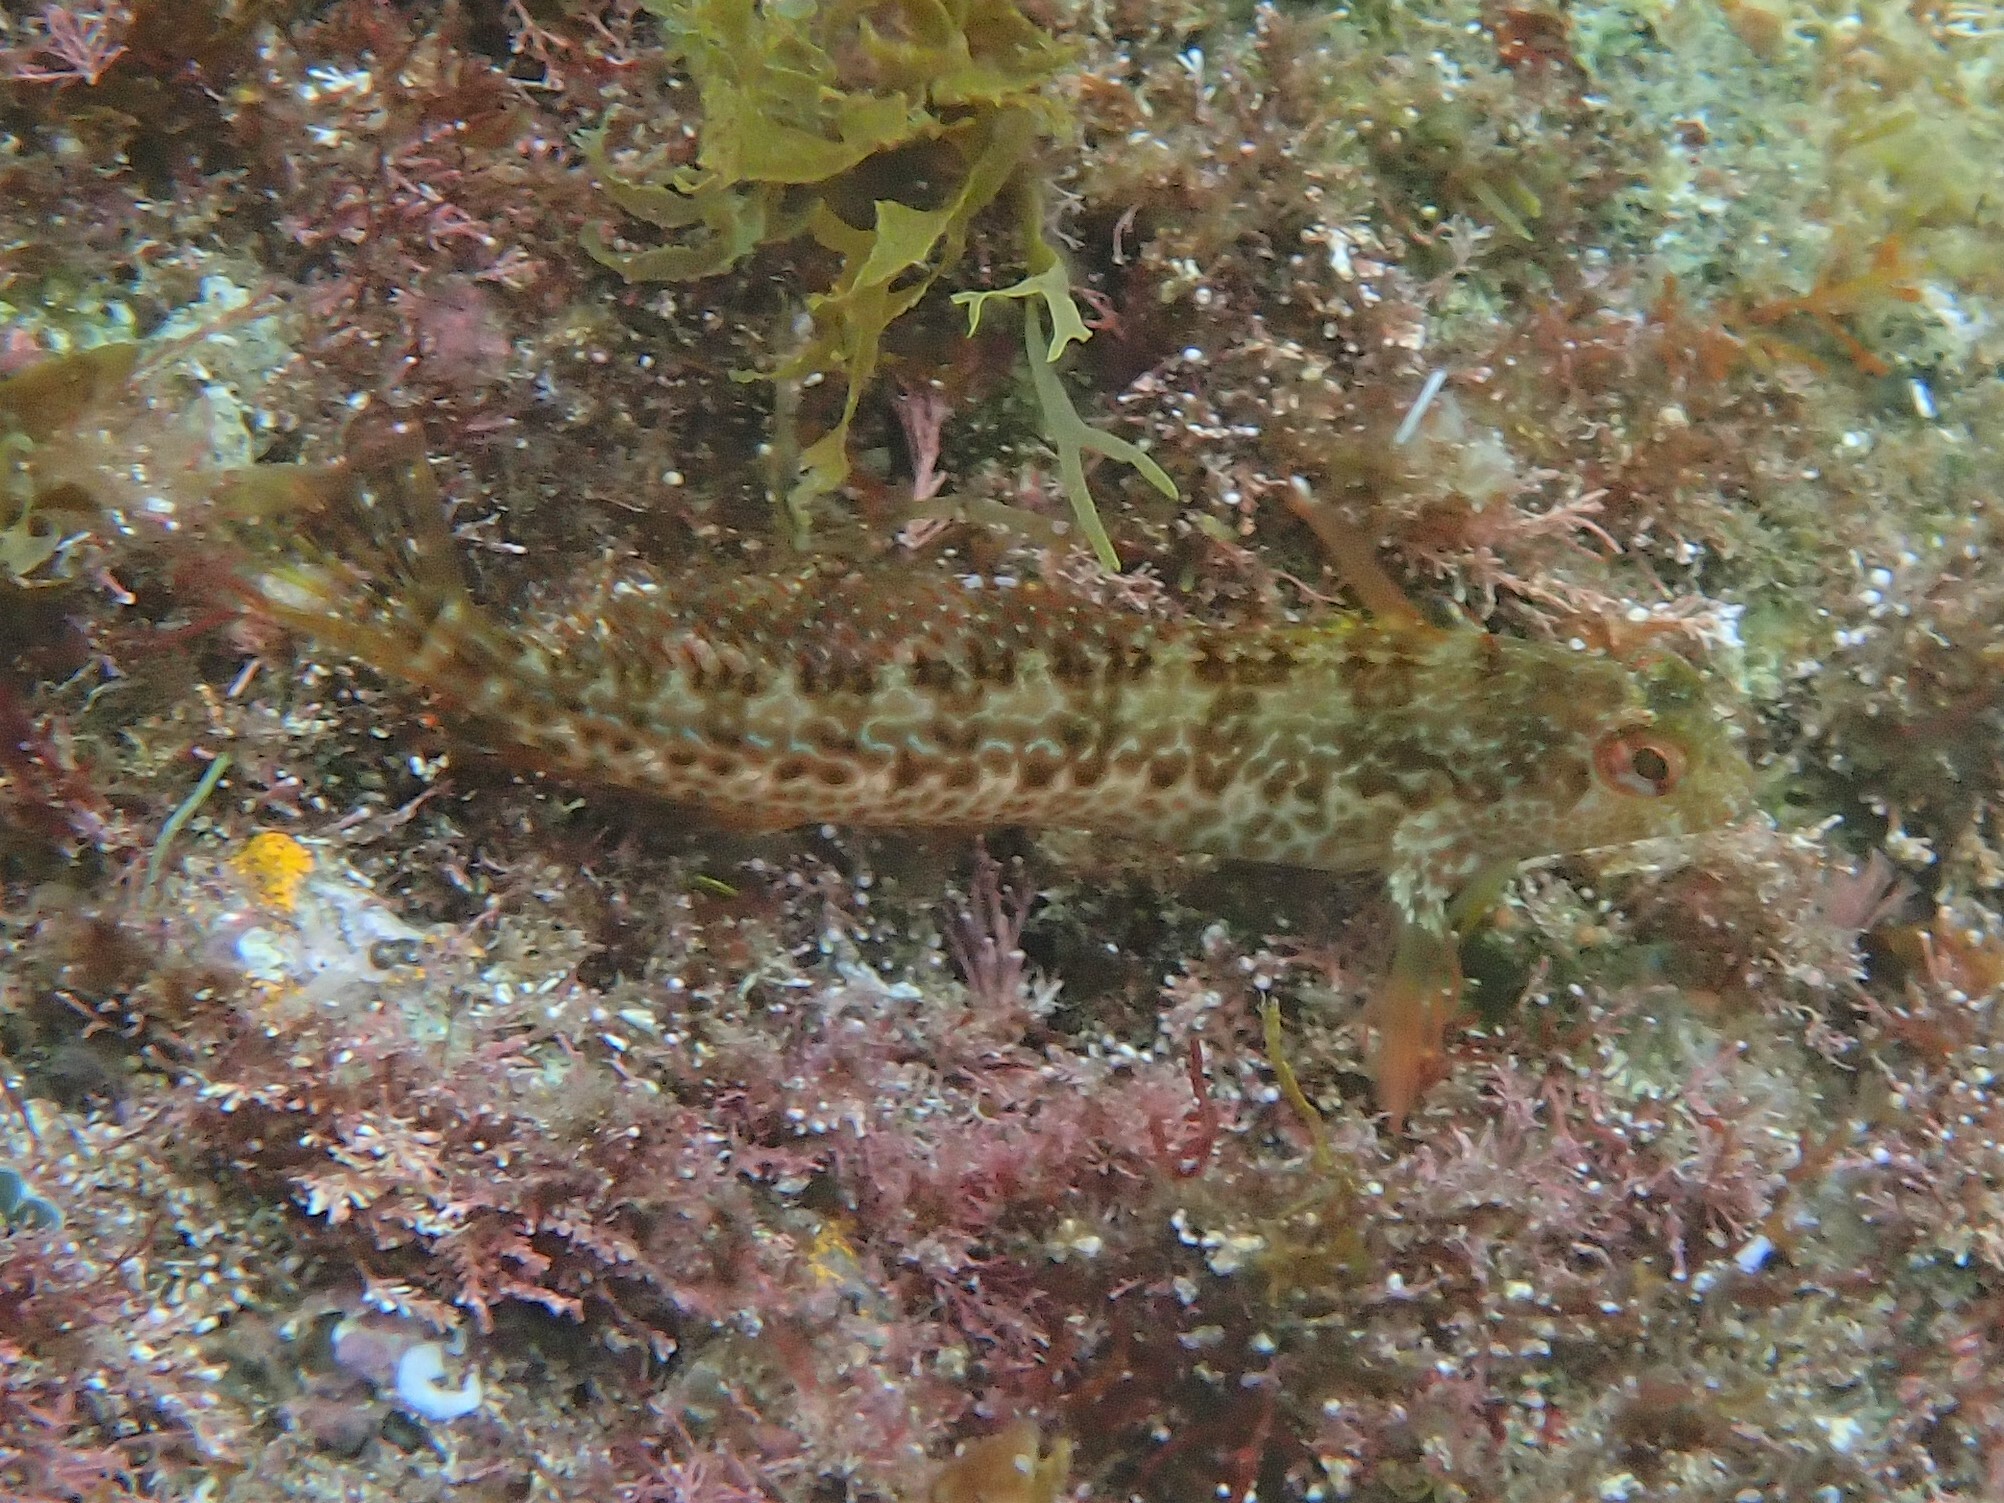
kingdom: Animalia
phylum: Chordata
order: Perciformes
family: Blenniidae
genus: Parablennius
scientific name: Parablennius pilicornis
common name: Ringneck blenny
